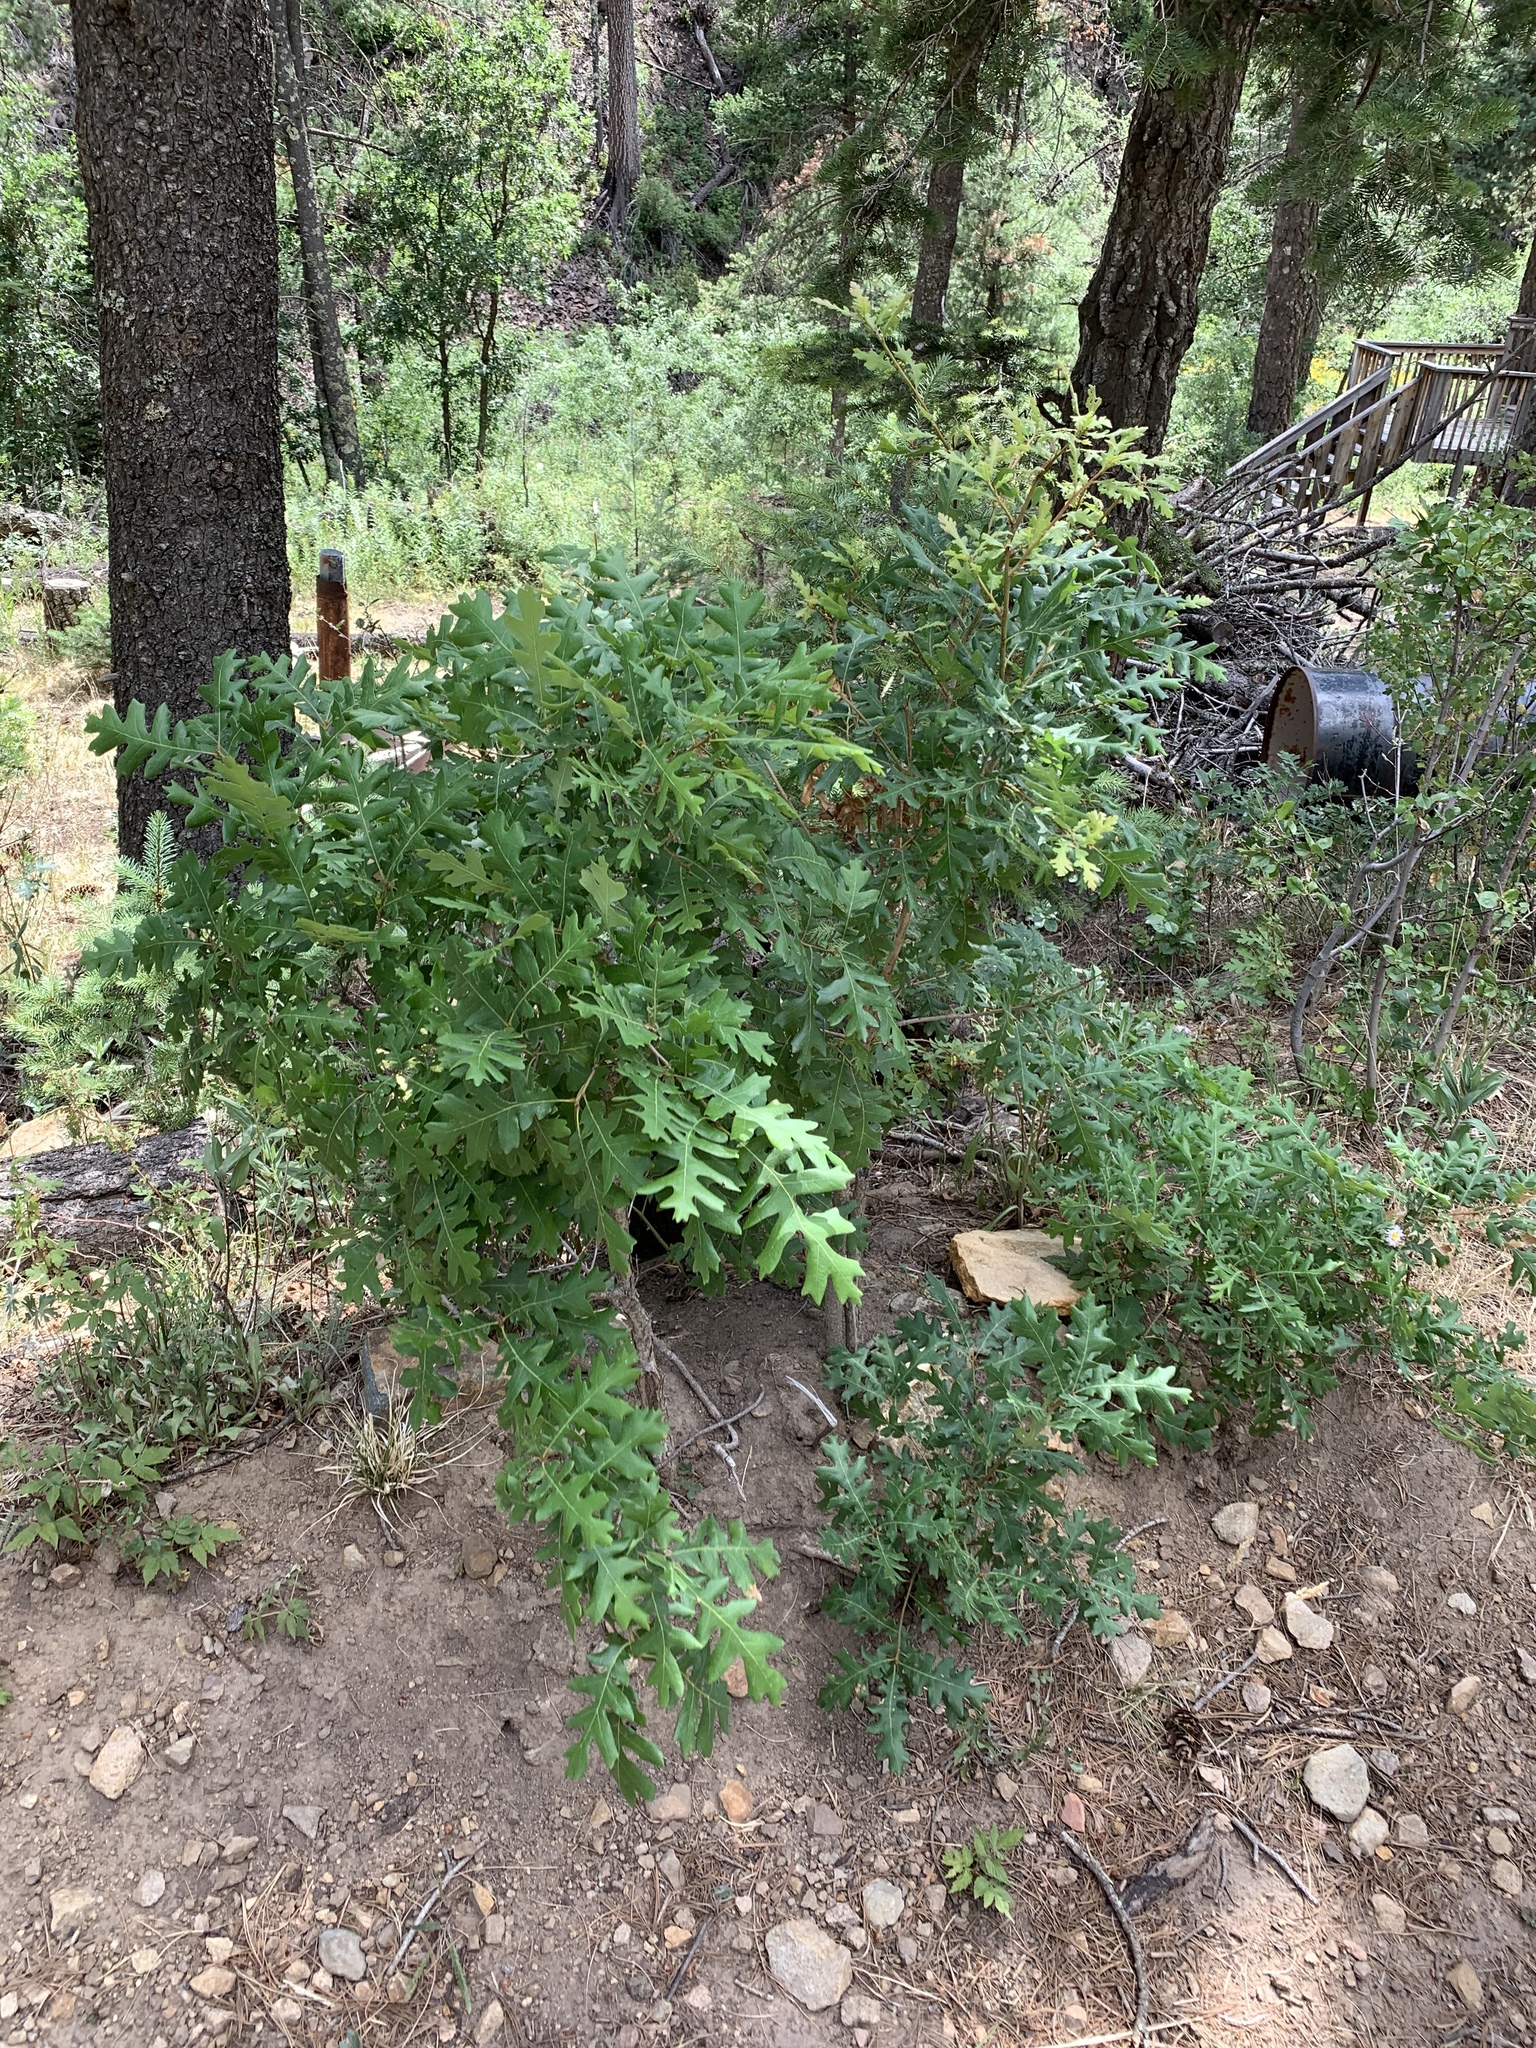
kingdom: Plantae
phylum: Tracheophyta
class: Magnoliopsida
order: Fagales
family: Fagaceae
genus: Quercus
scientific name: Quercus gambelii
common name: Gambel oak
